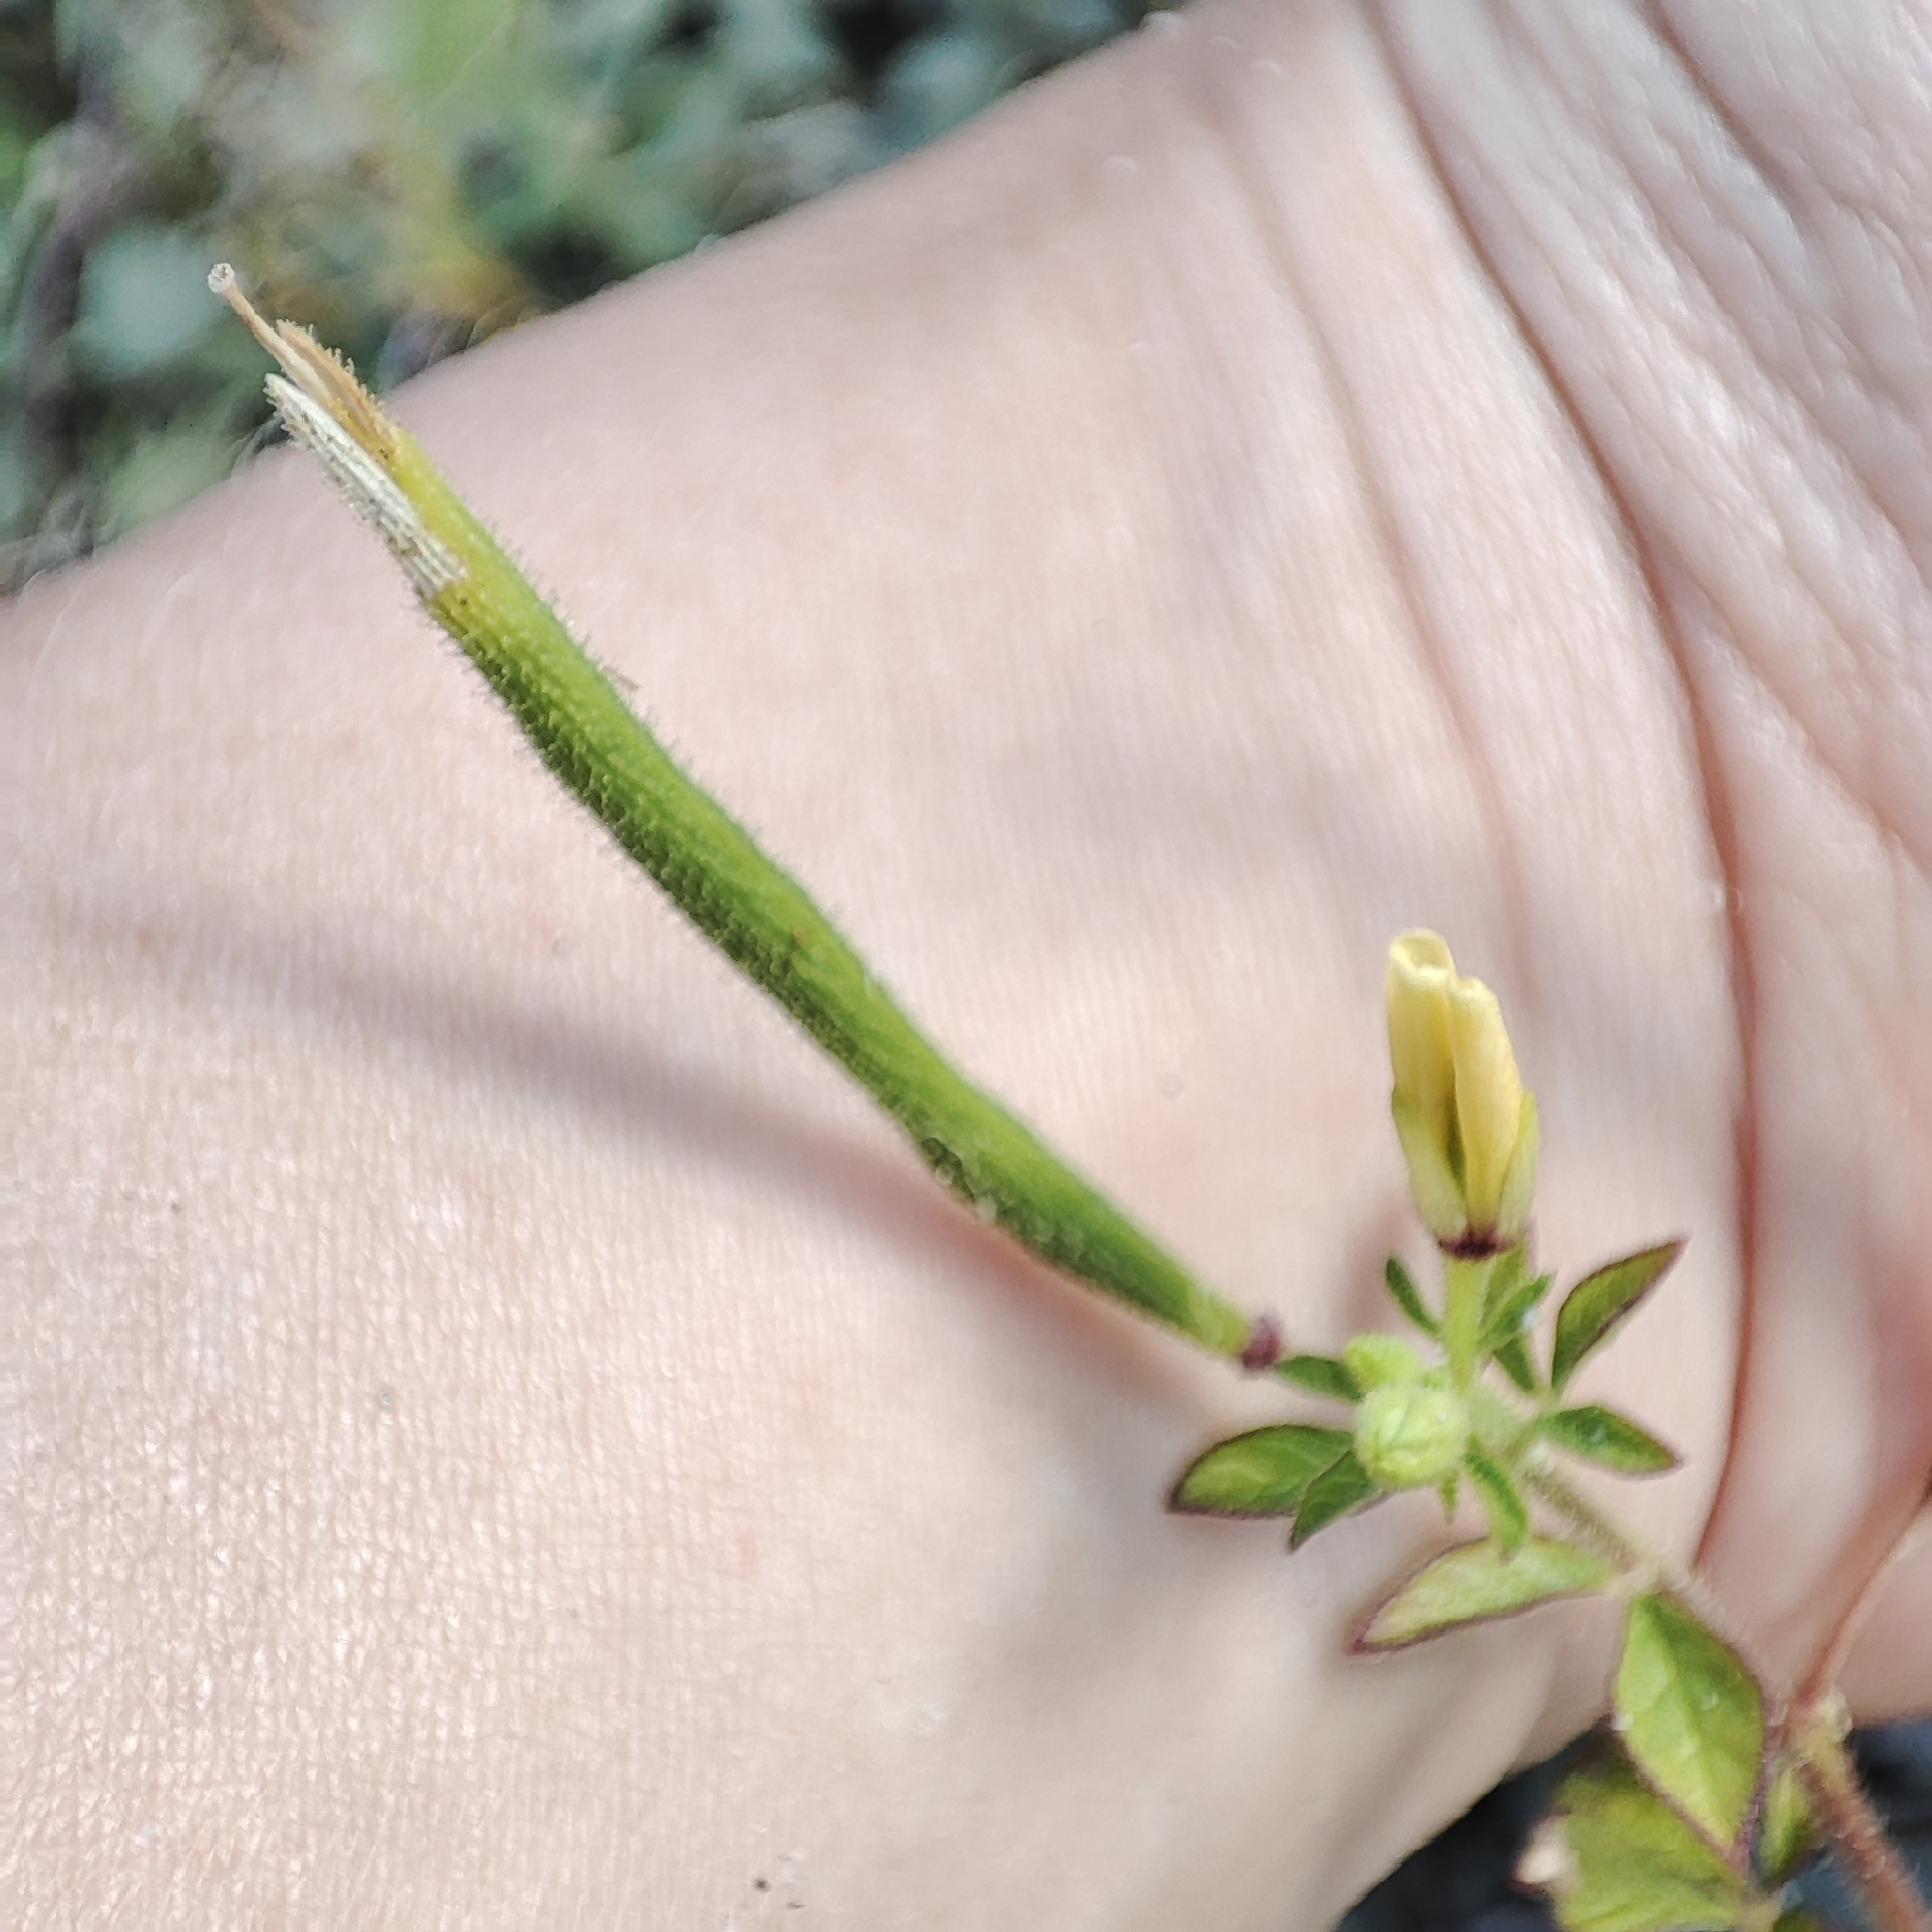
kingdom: Plantae
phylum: Tracheophyta
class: Magnoliopsida
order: Brassicales
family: Cleomaceae
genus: Arivela
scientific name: Arivela viscosa
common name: Asian spiderflower
